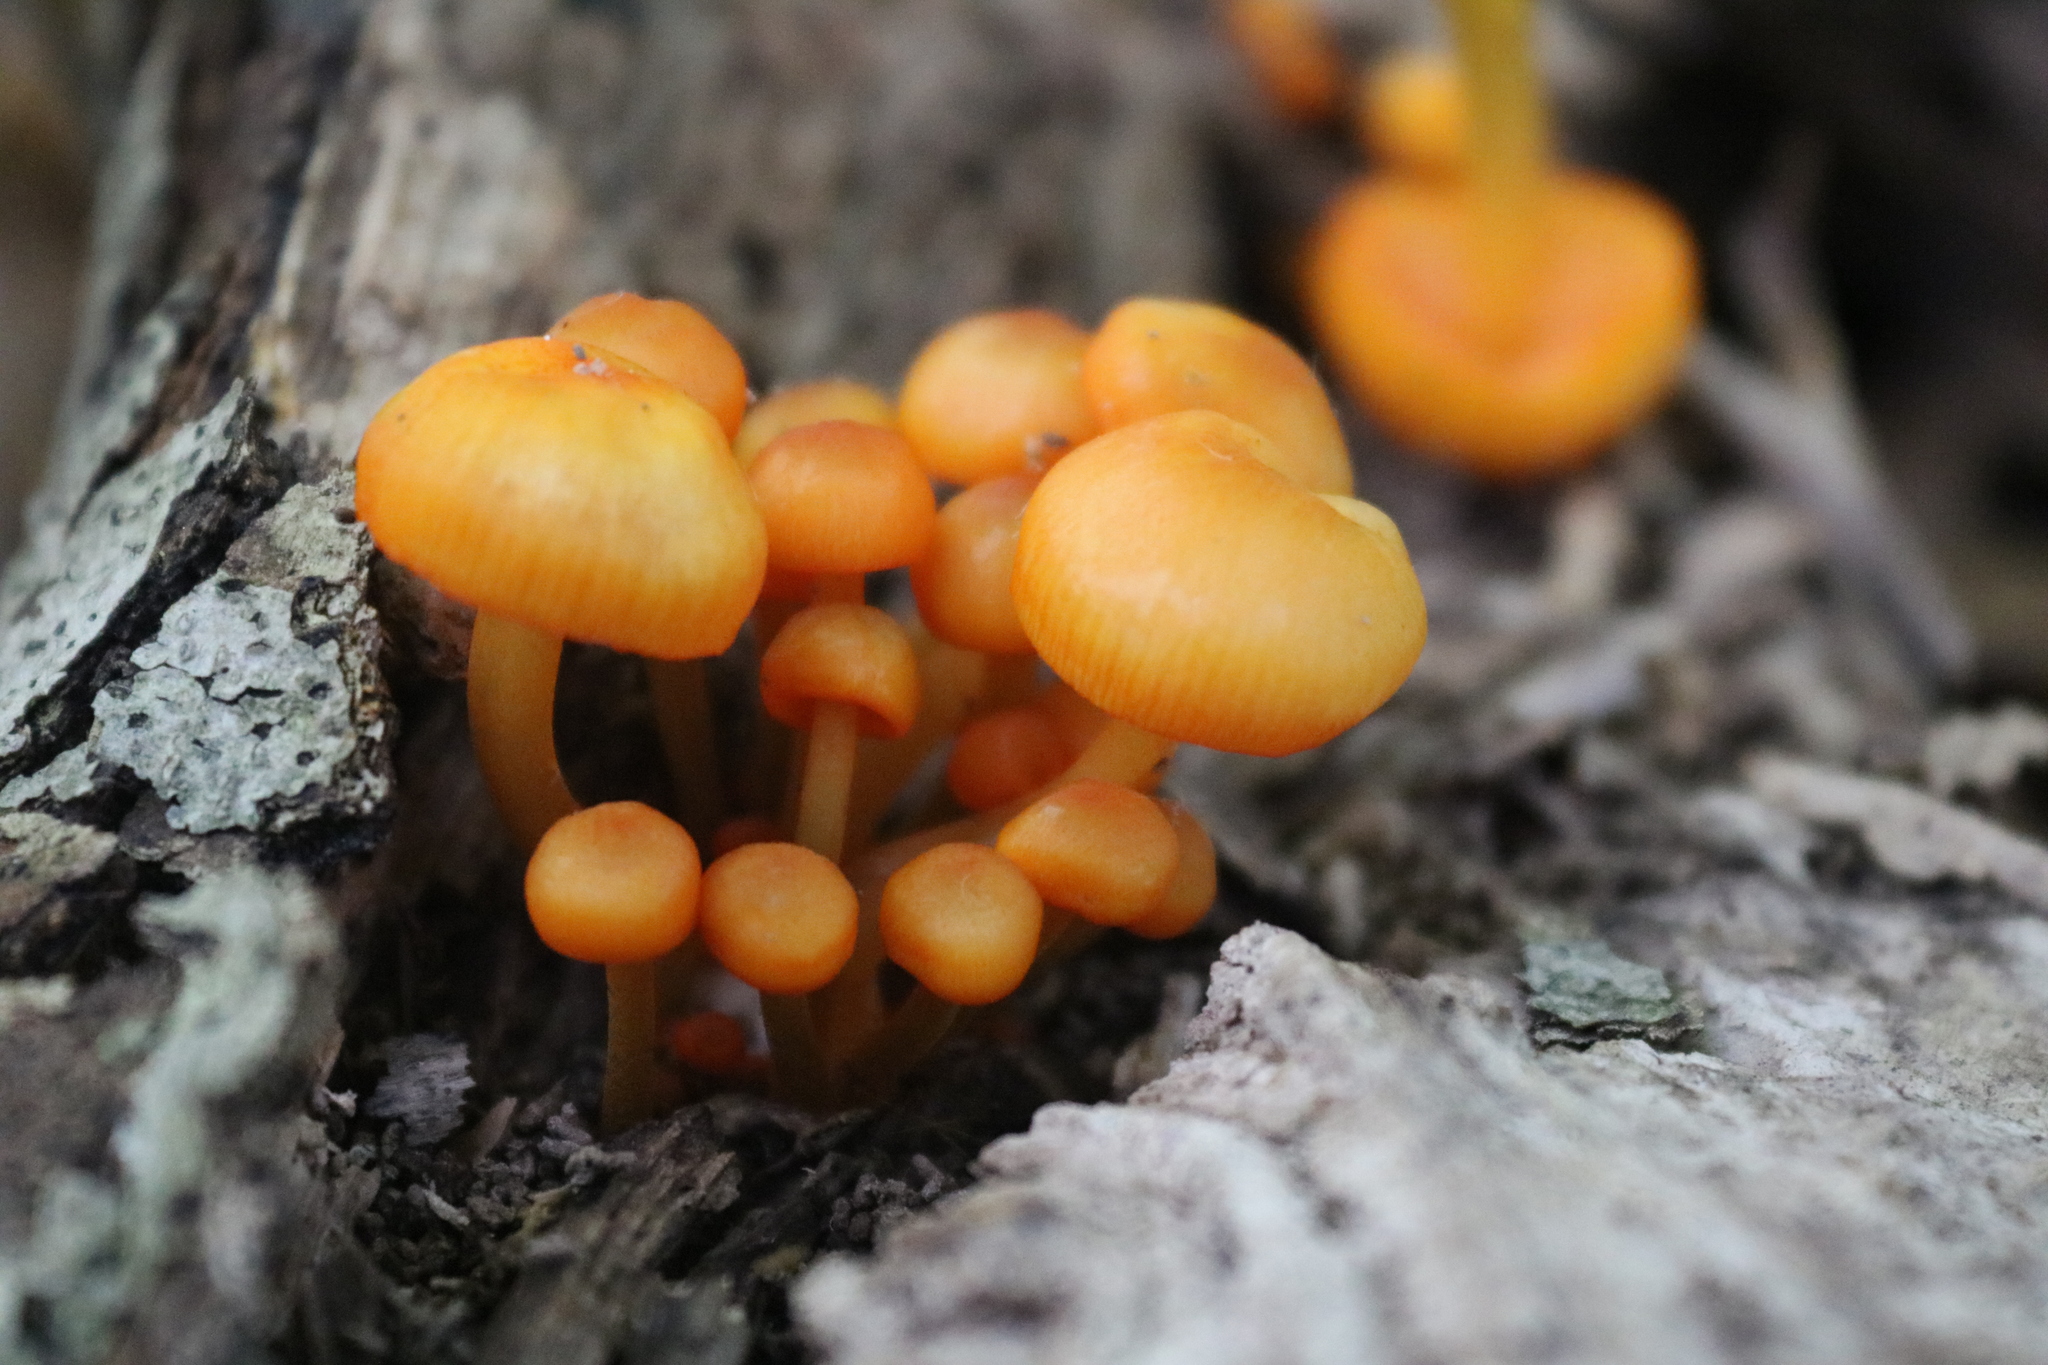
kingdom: Fungi
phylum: Basidiomycota
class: Agaricomycetes
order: Agaricales
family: Mycenaceae
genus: Mycena
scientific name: Mycena leaiana
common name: Orange mycena
